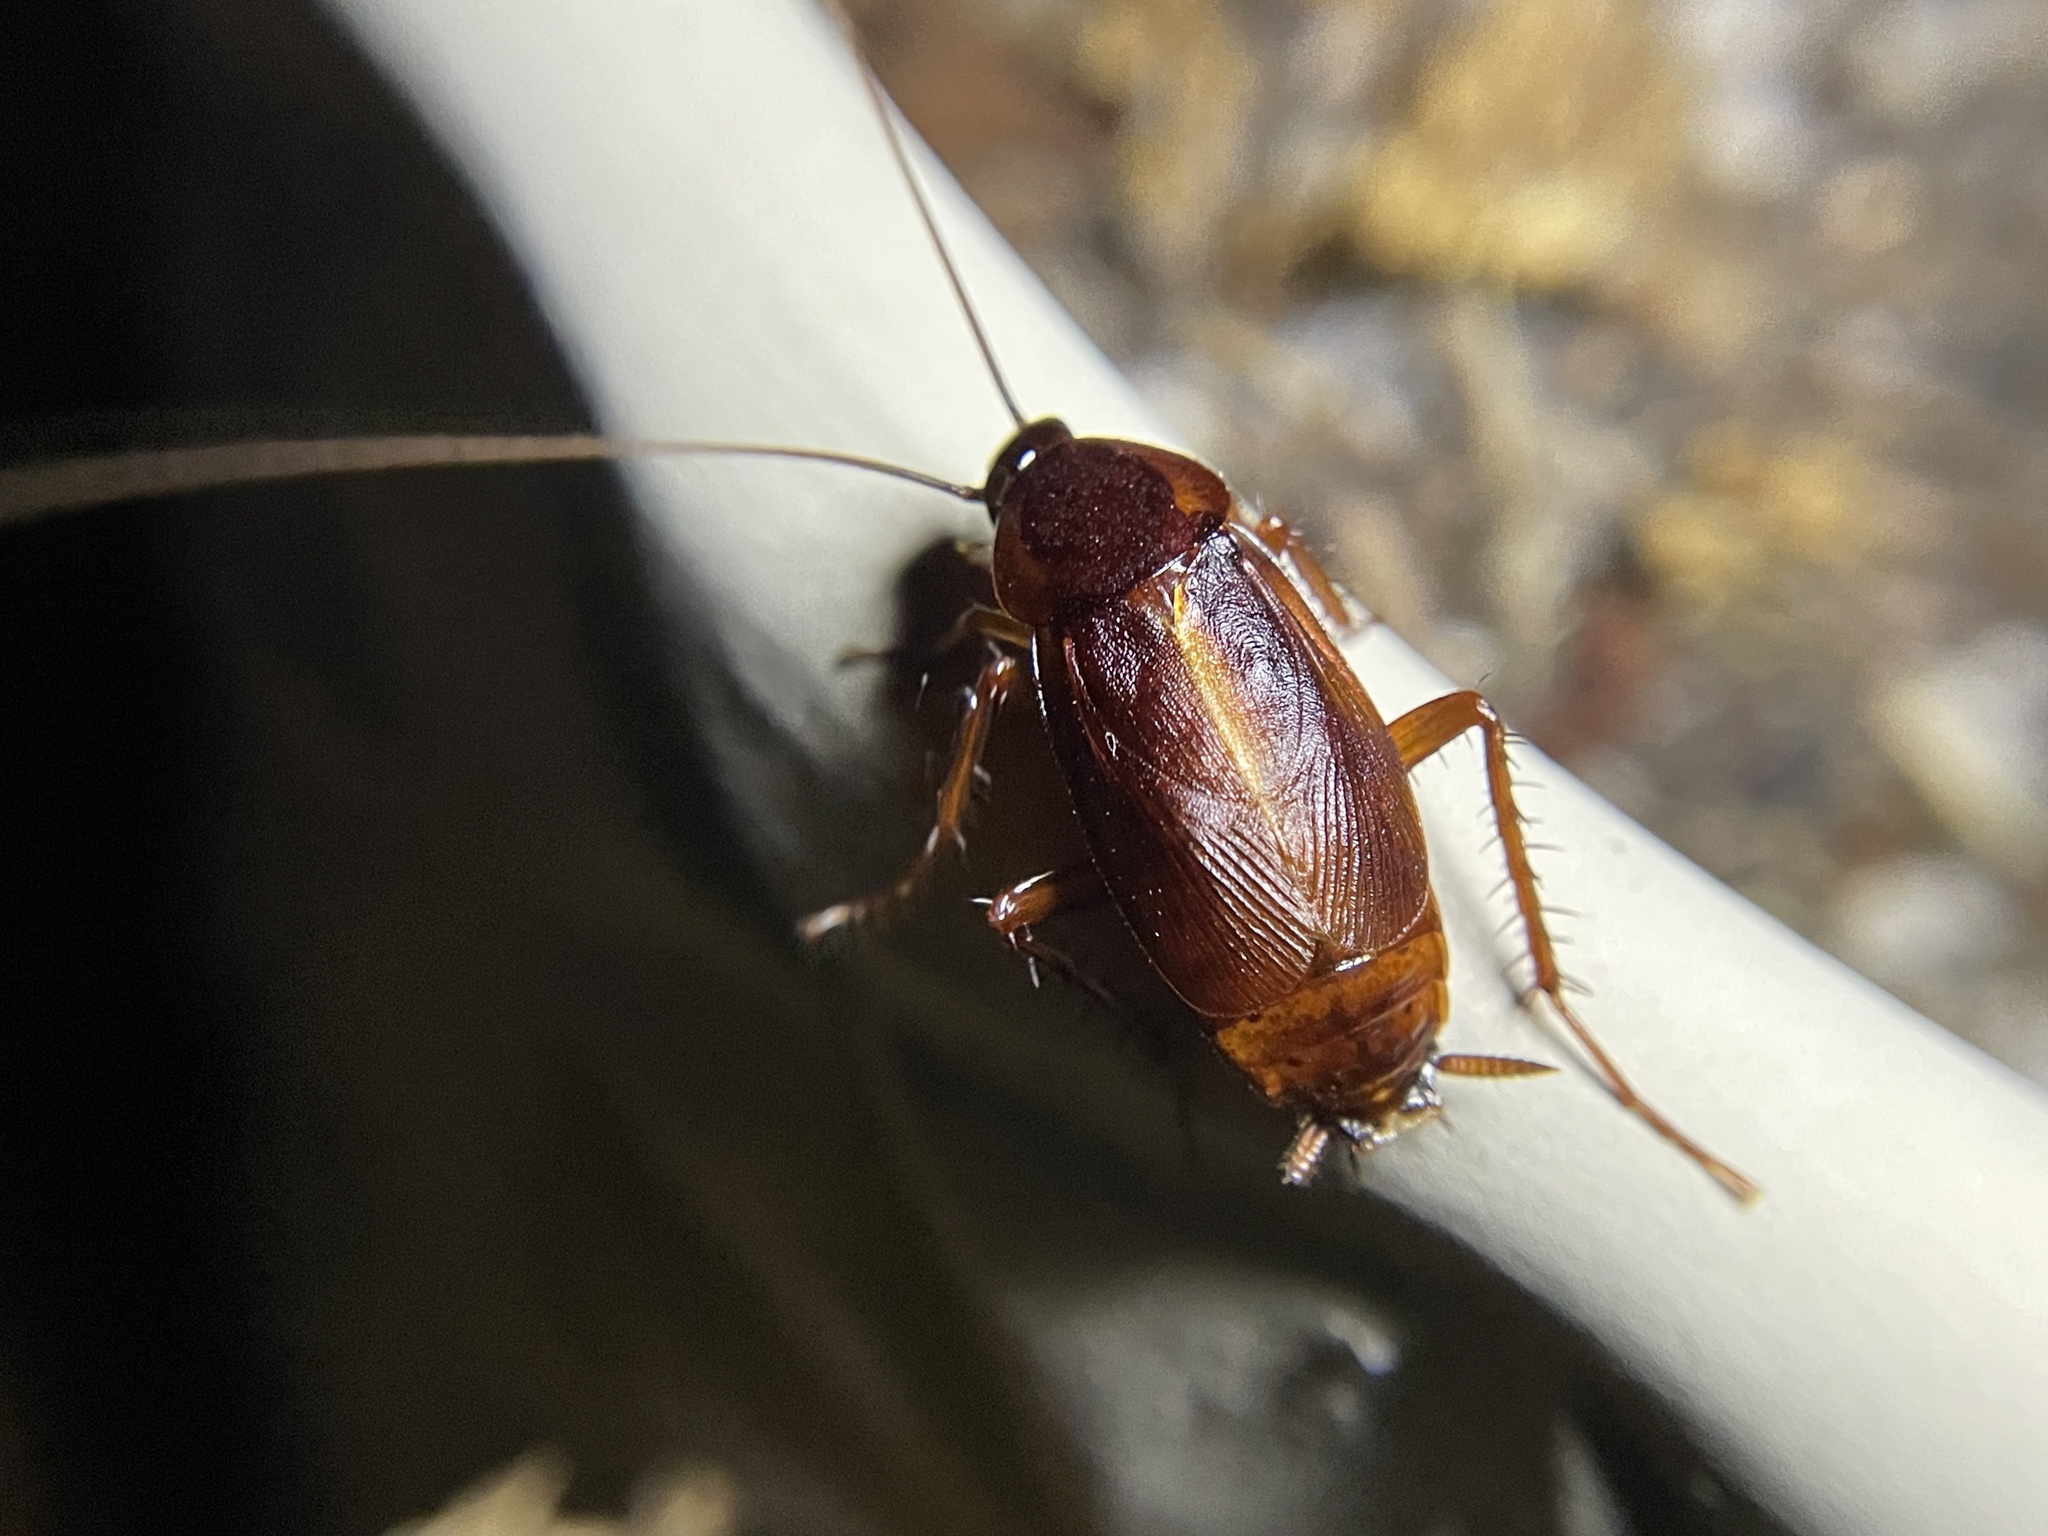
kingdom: Animalia
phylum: Arthropoda
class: Insecta
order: Blattodea
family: Blattidae
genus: Blatta
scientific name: Blatta orientalis
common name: Oriental cockroach
